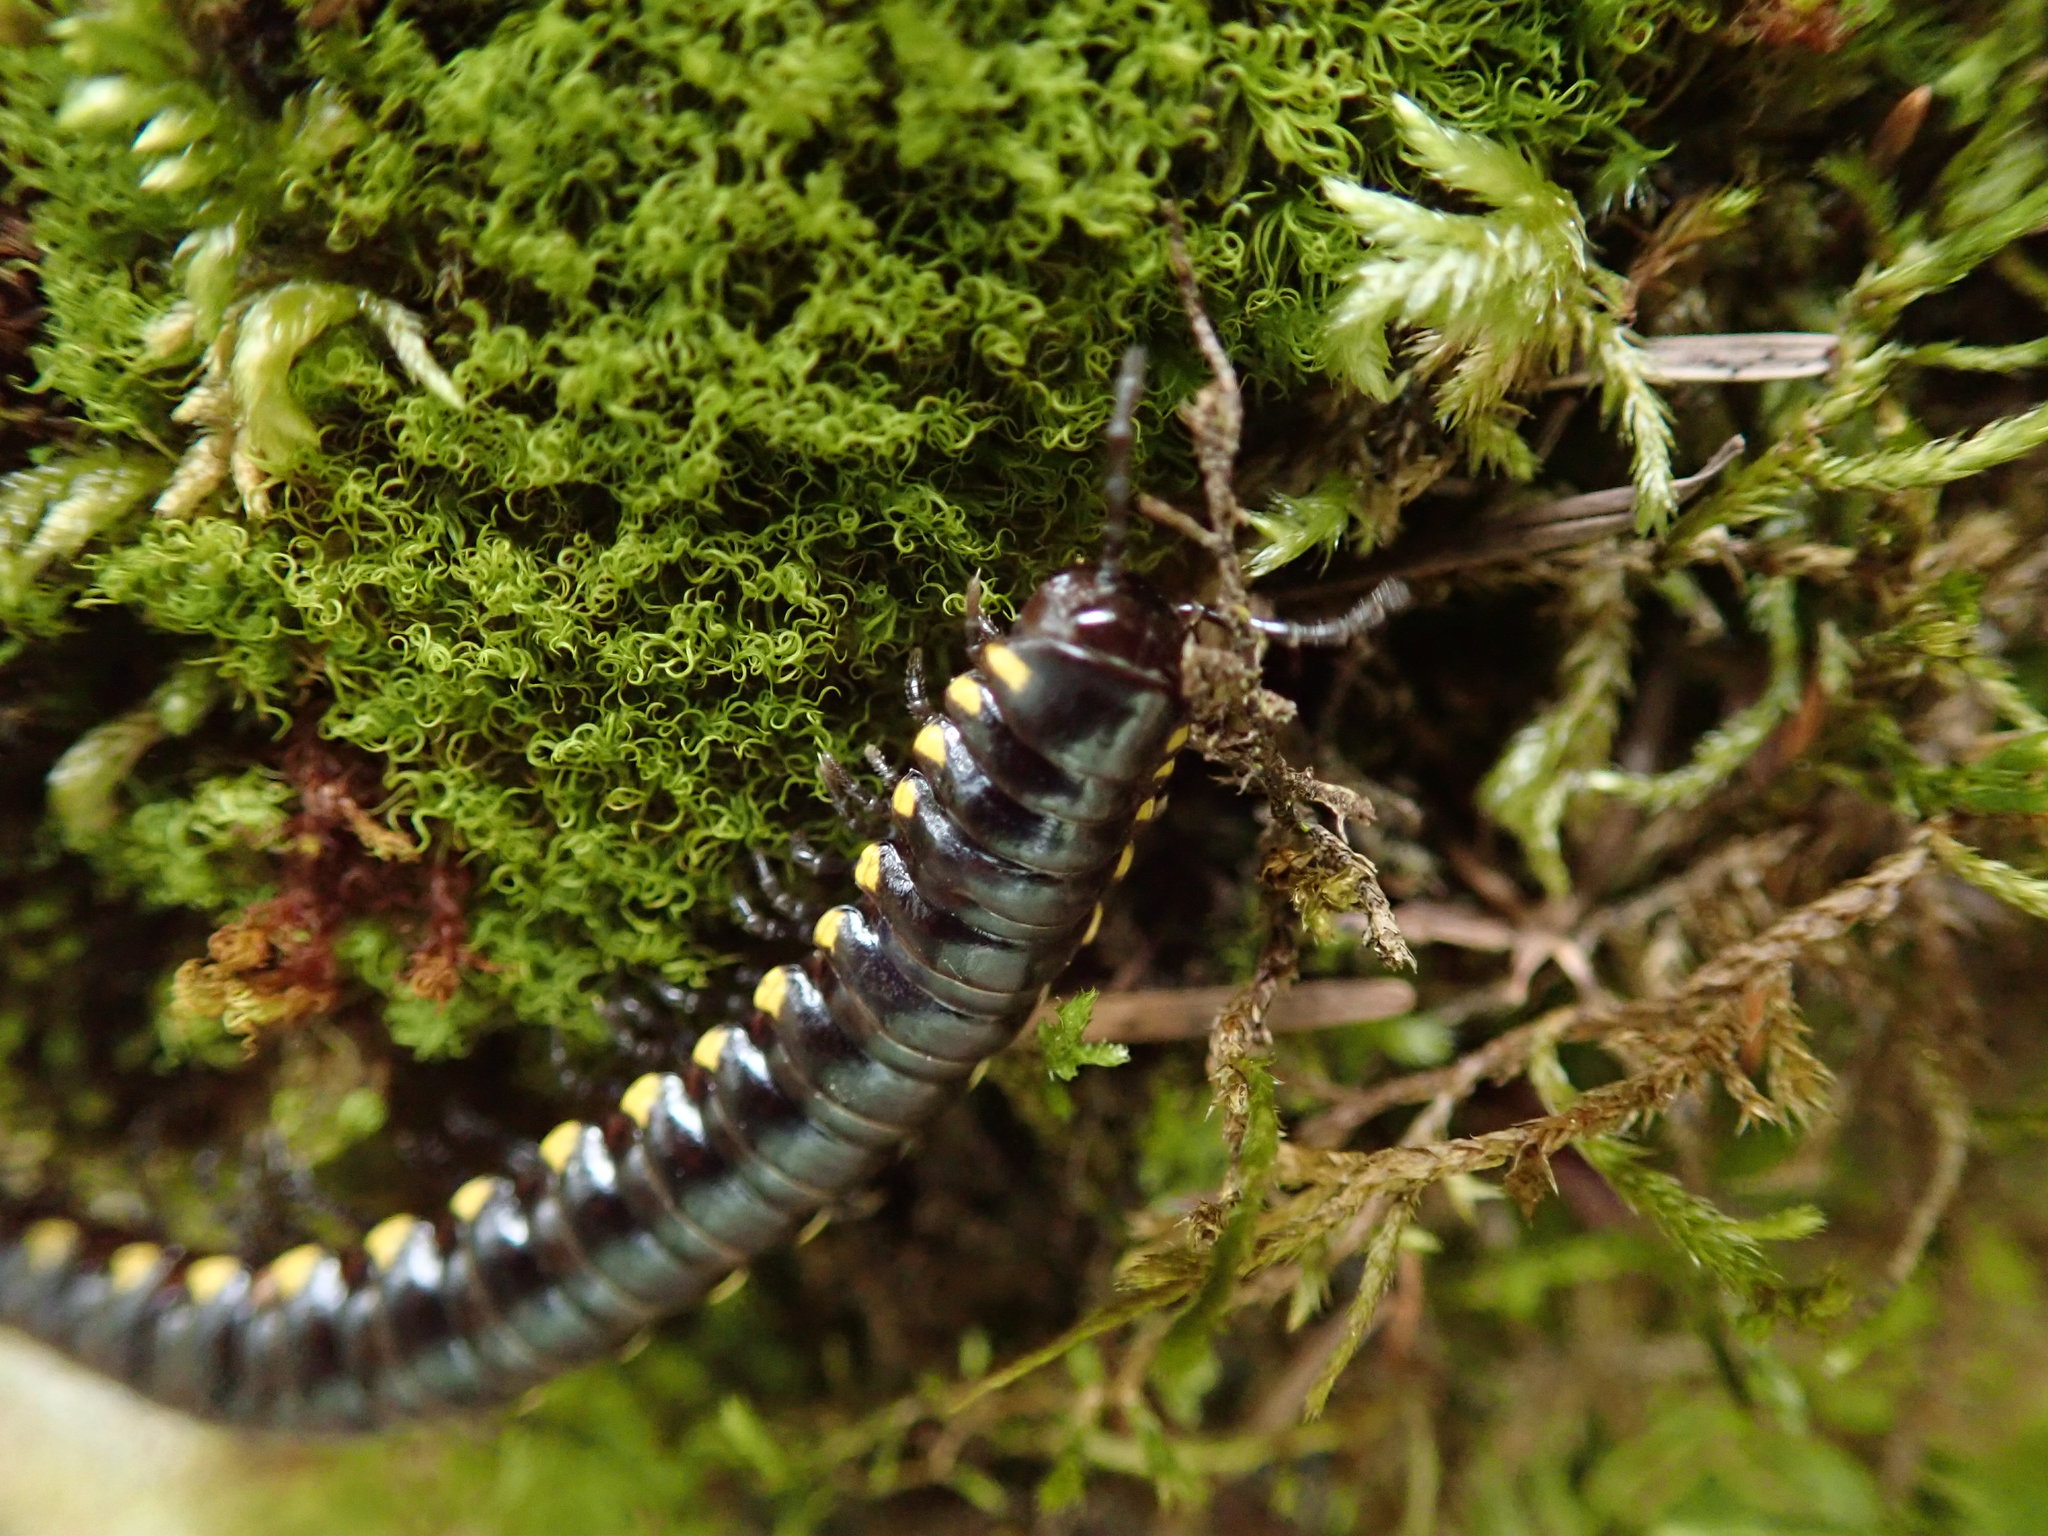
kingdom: Animalia
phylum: Arthropoda
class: Diplopoda
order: Polydesmida
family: Xystodesmidae
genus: Harpaphe
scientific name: Harpaphe haydeniana
